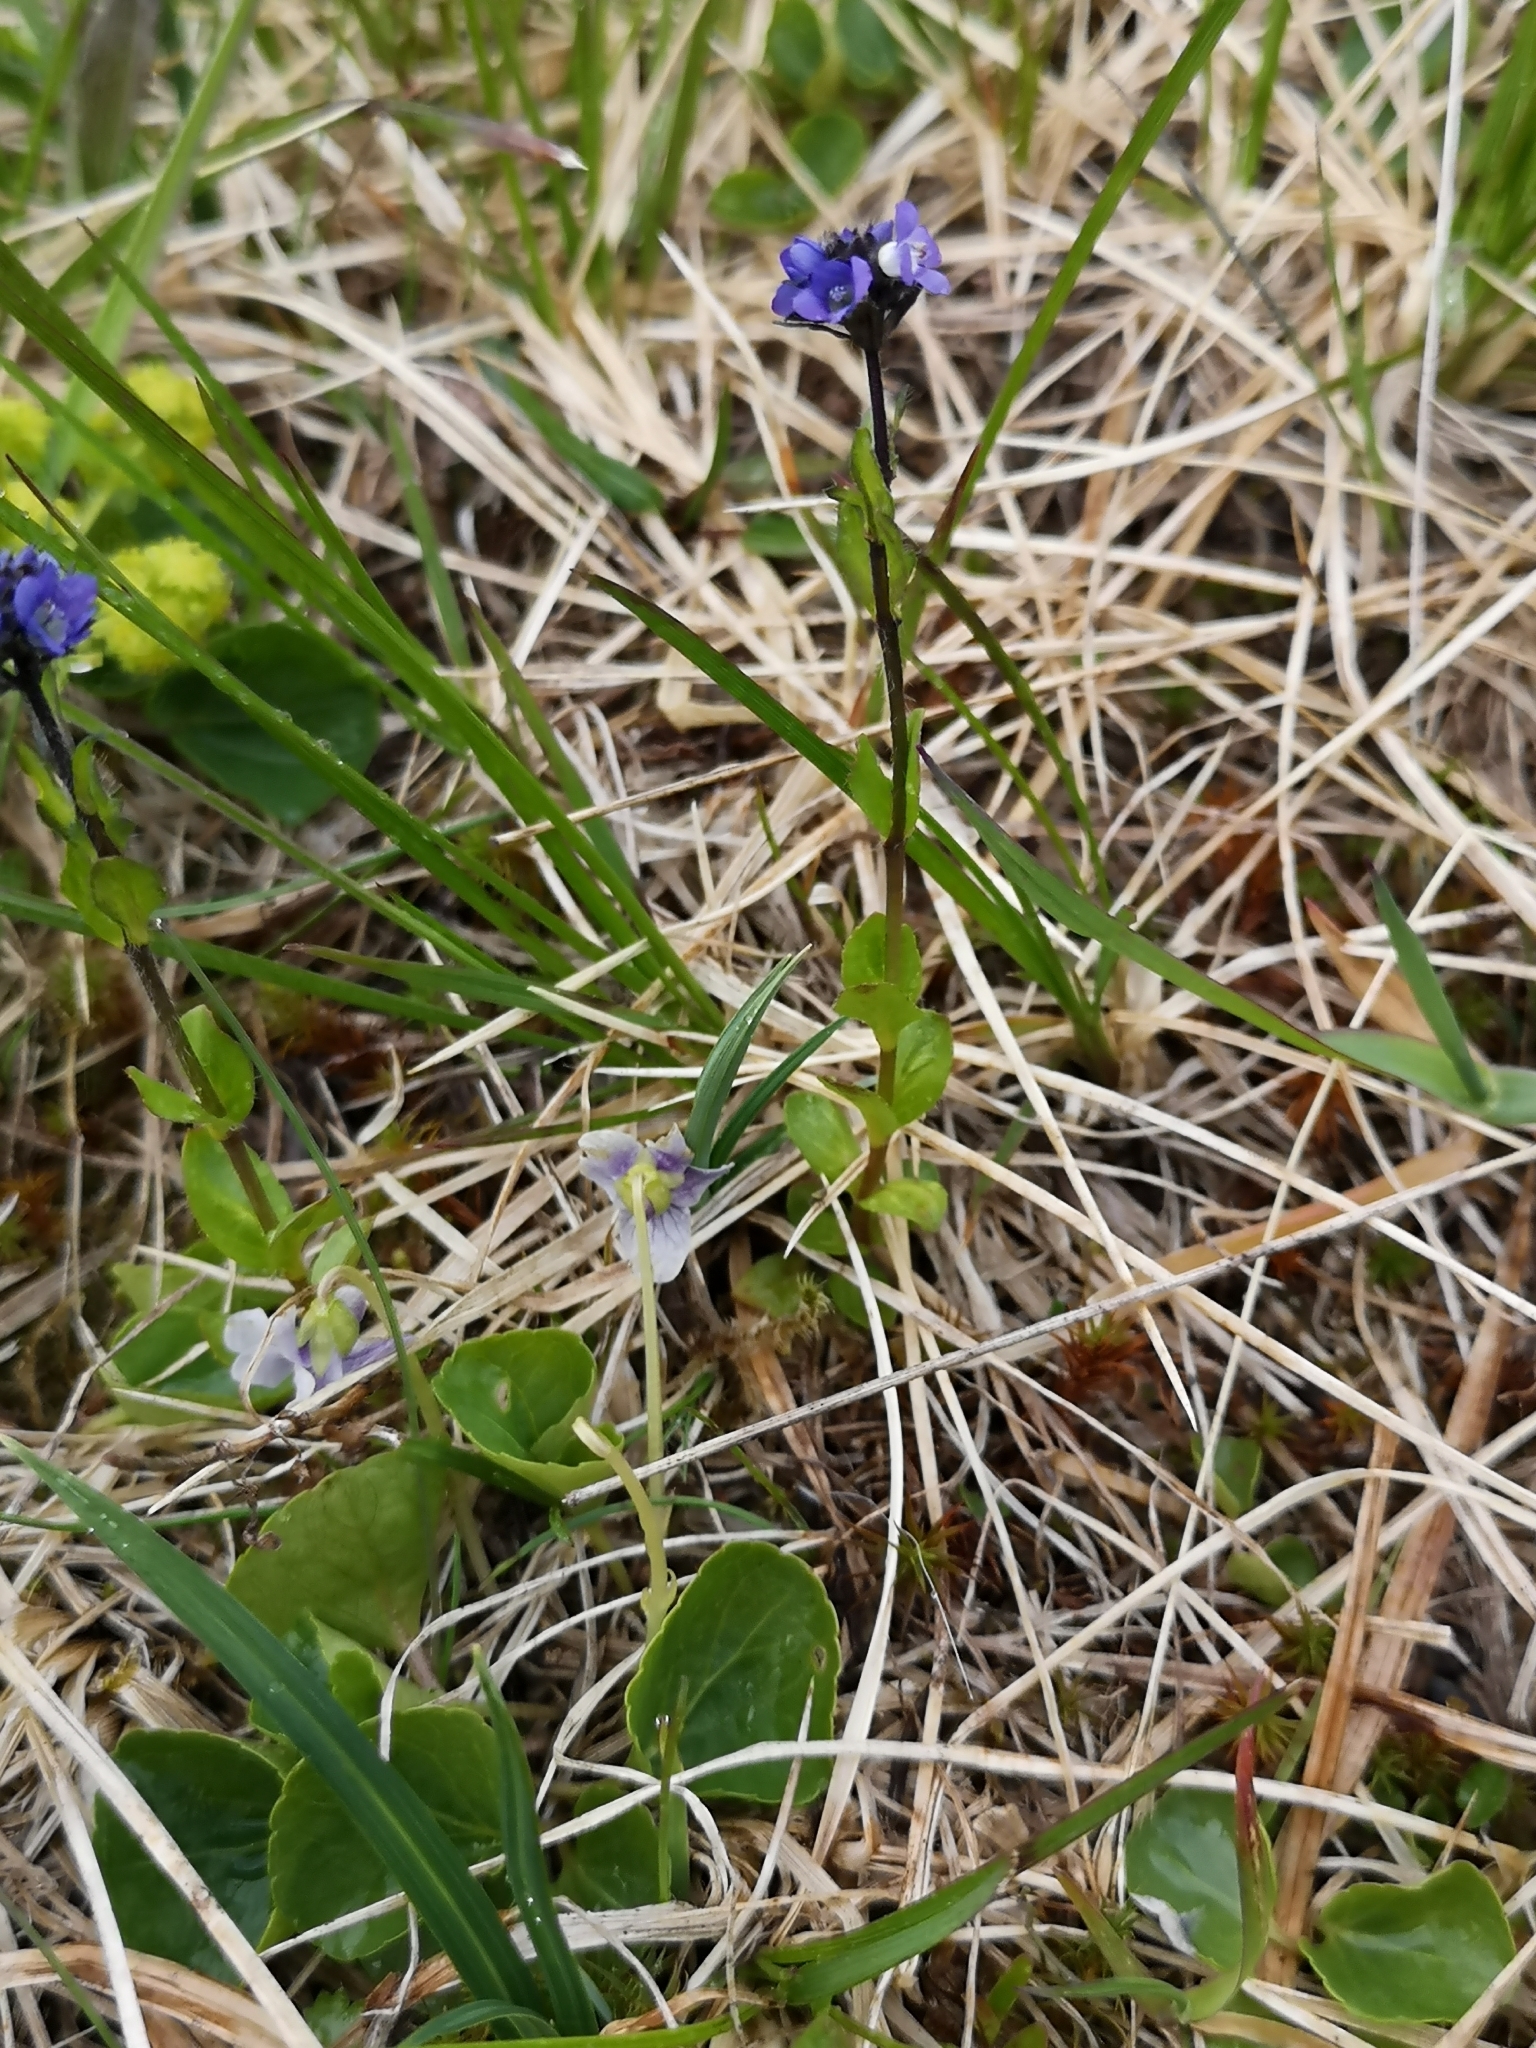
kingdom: Plantae
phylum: Tracheophyta
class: Magnoliopsida
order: Lamiales
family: Plantaginaceae
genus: Veronica
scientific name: Veronica alpina
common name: Alpine speedwell
